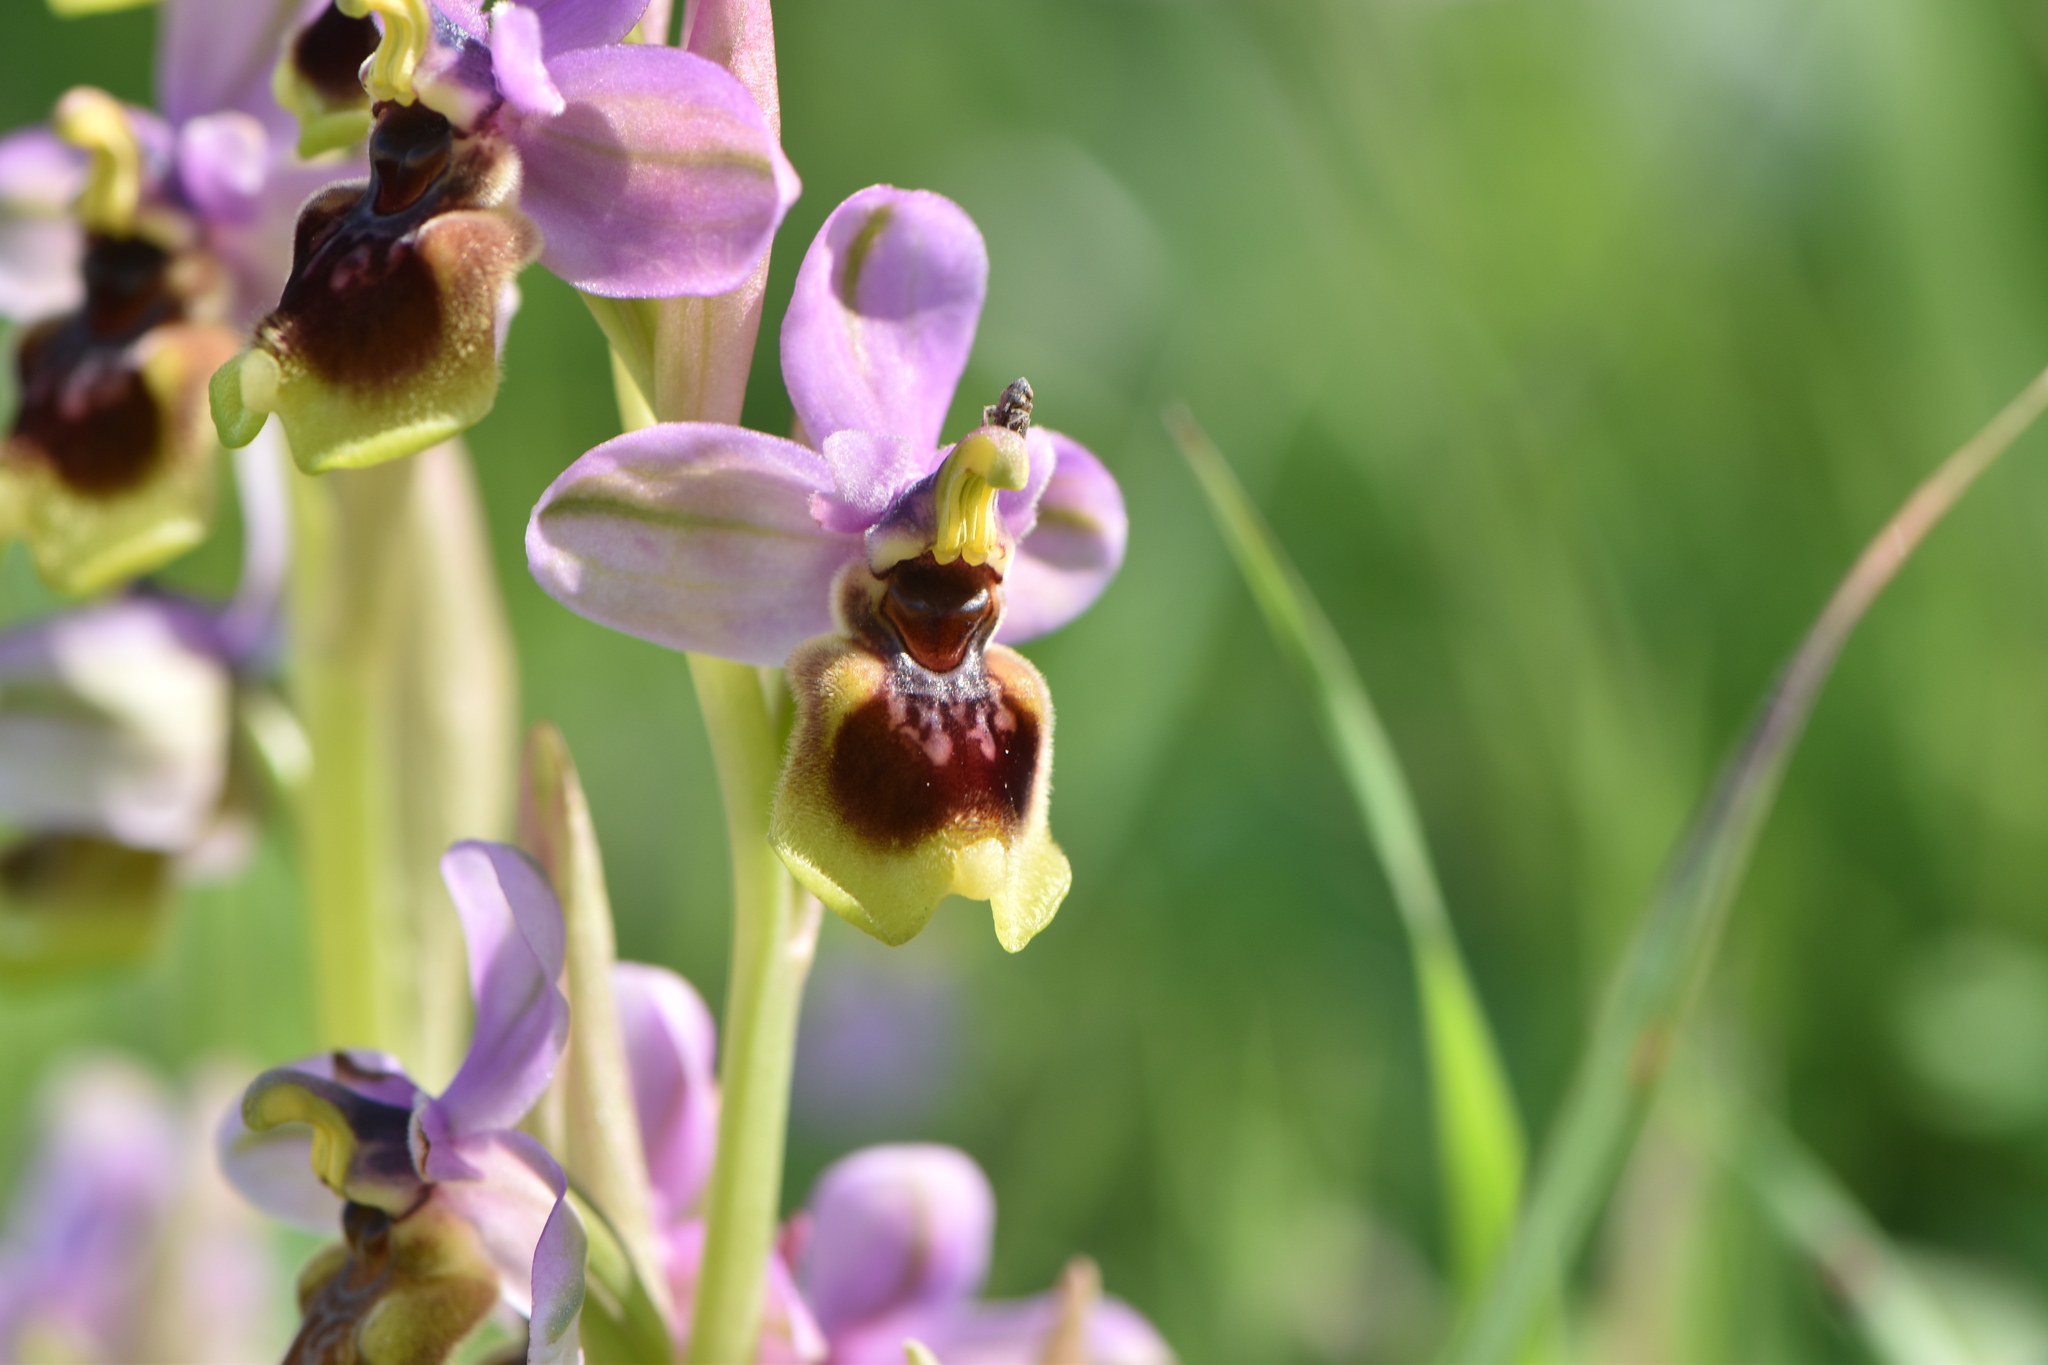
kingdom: Plantae
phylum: Tracheophyta
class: Liliopsida
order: Asparagales
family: Orchidaceae
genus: Ophrys
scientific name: Ophrys tenthredinifera
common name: Sawfly orchid
